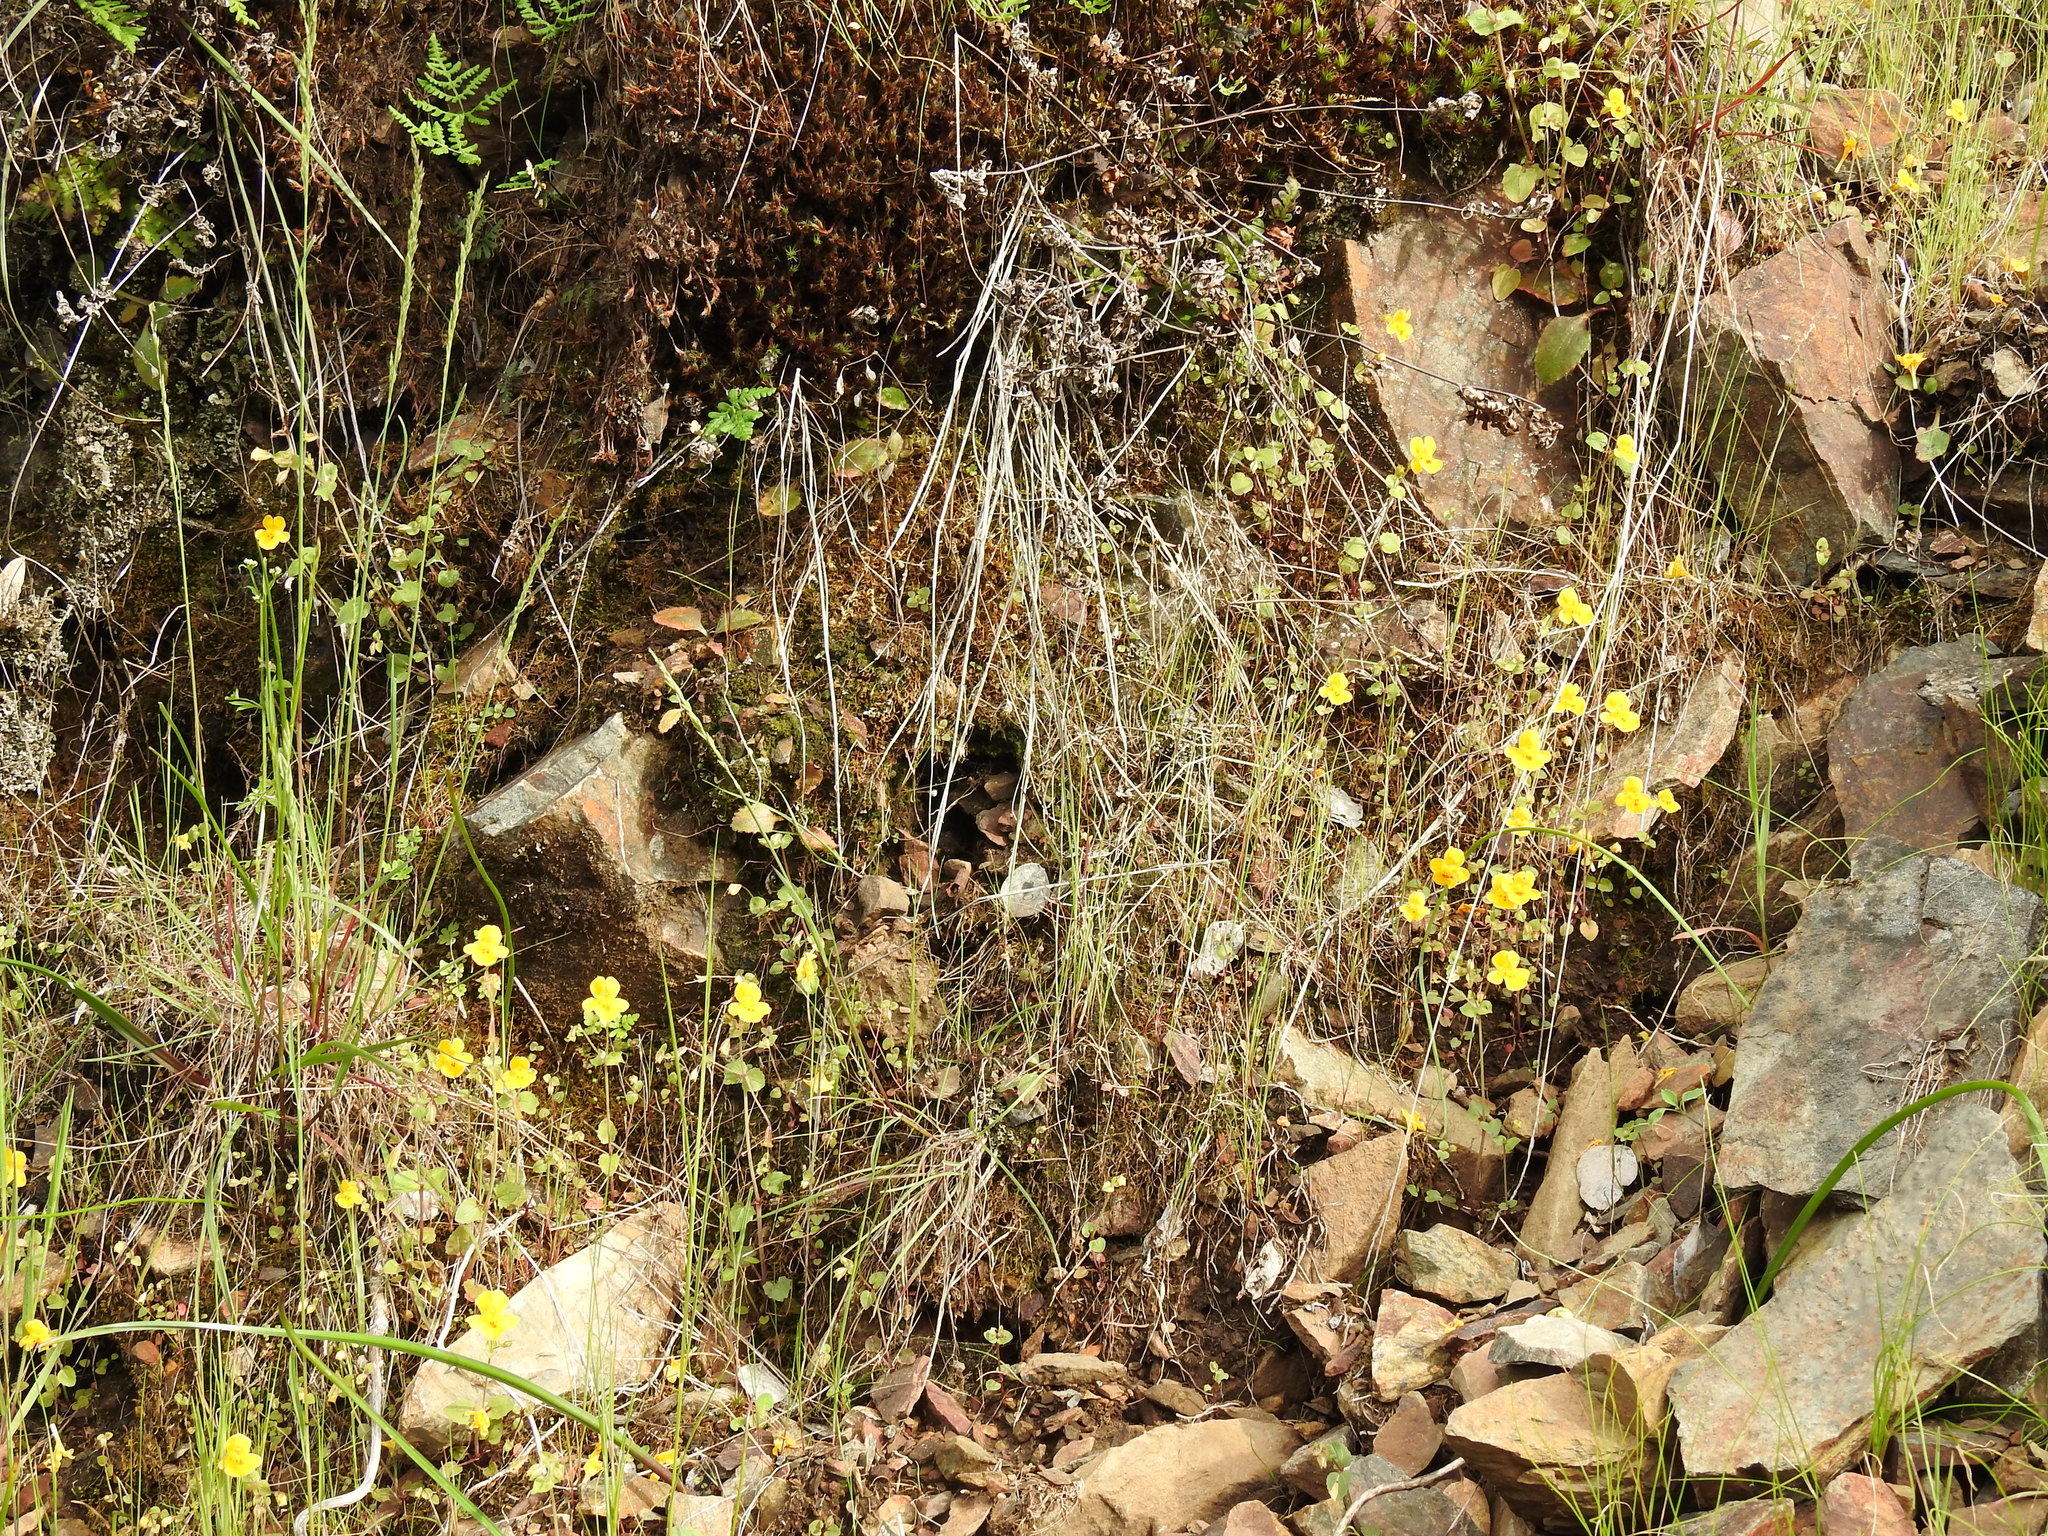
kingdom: Plantae
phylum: Tracheophyta
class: Magnoliopsida
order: Lamiales
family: Phrymaceae
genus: Erythranthe
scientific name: Erythranthe guttata
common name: Monkeyflower
